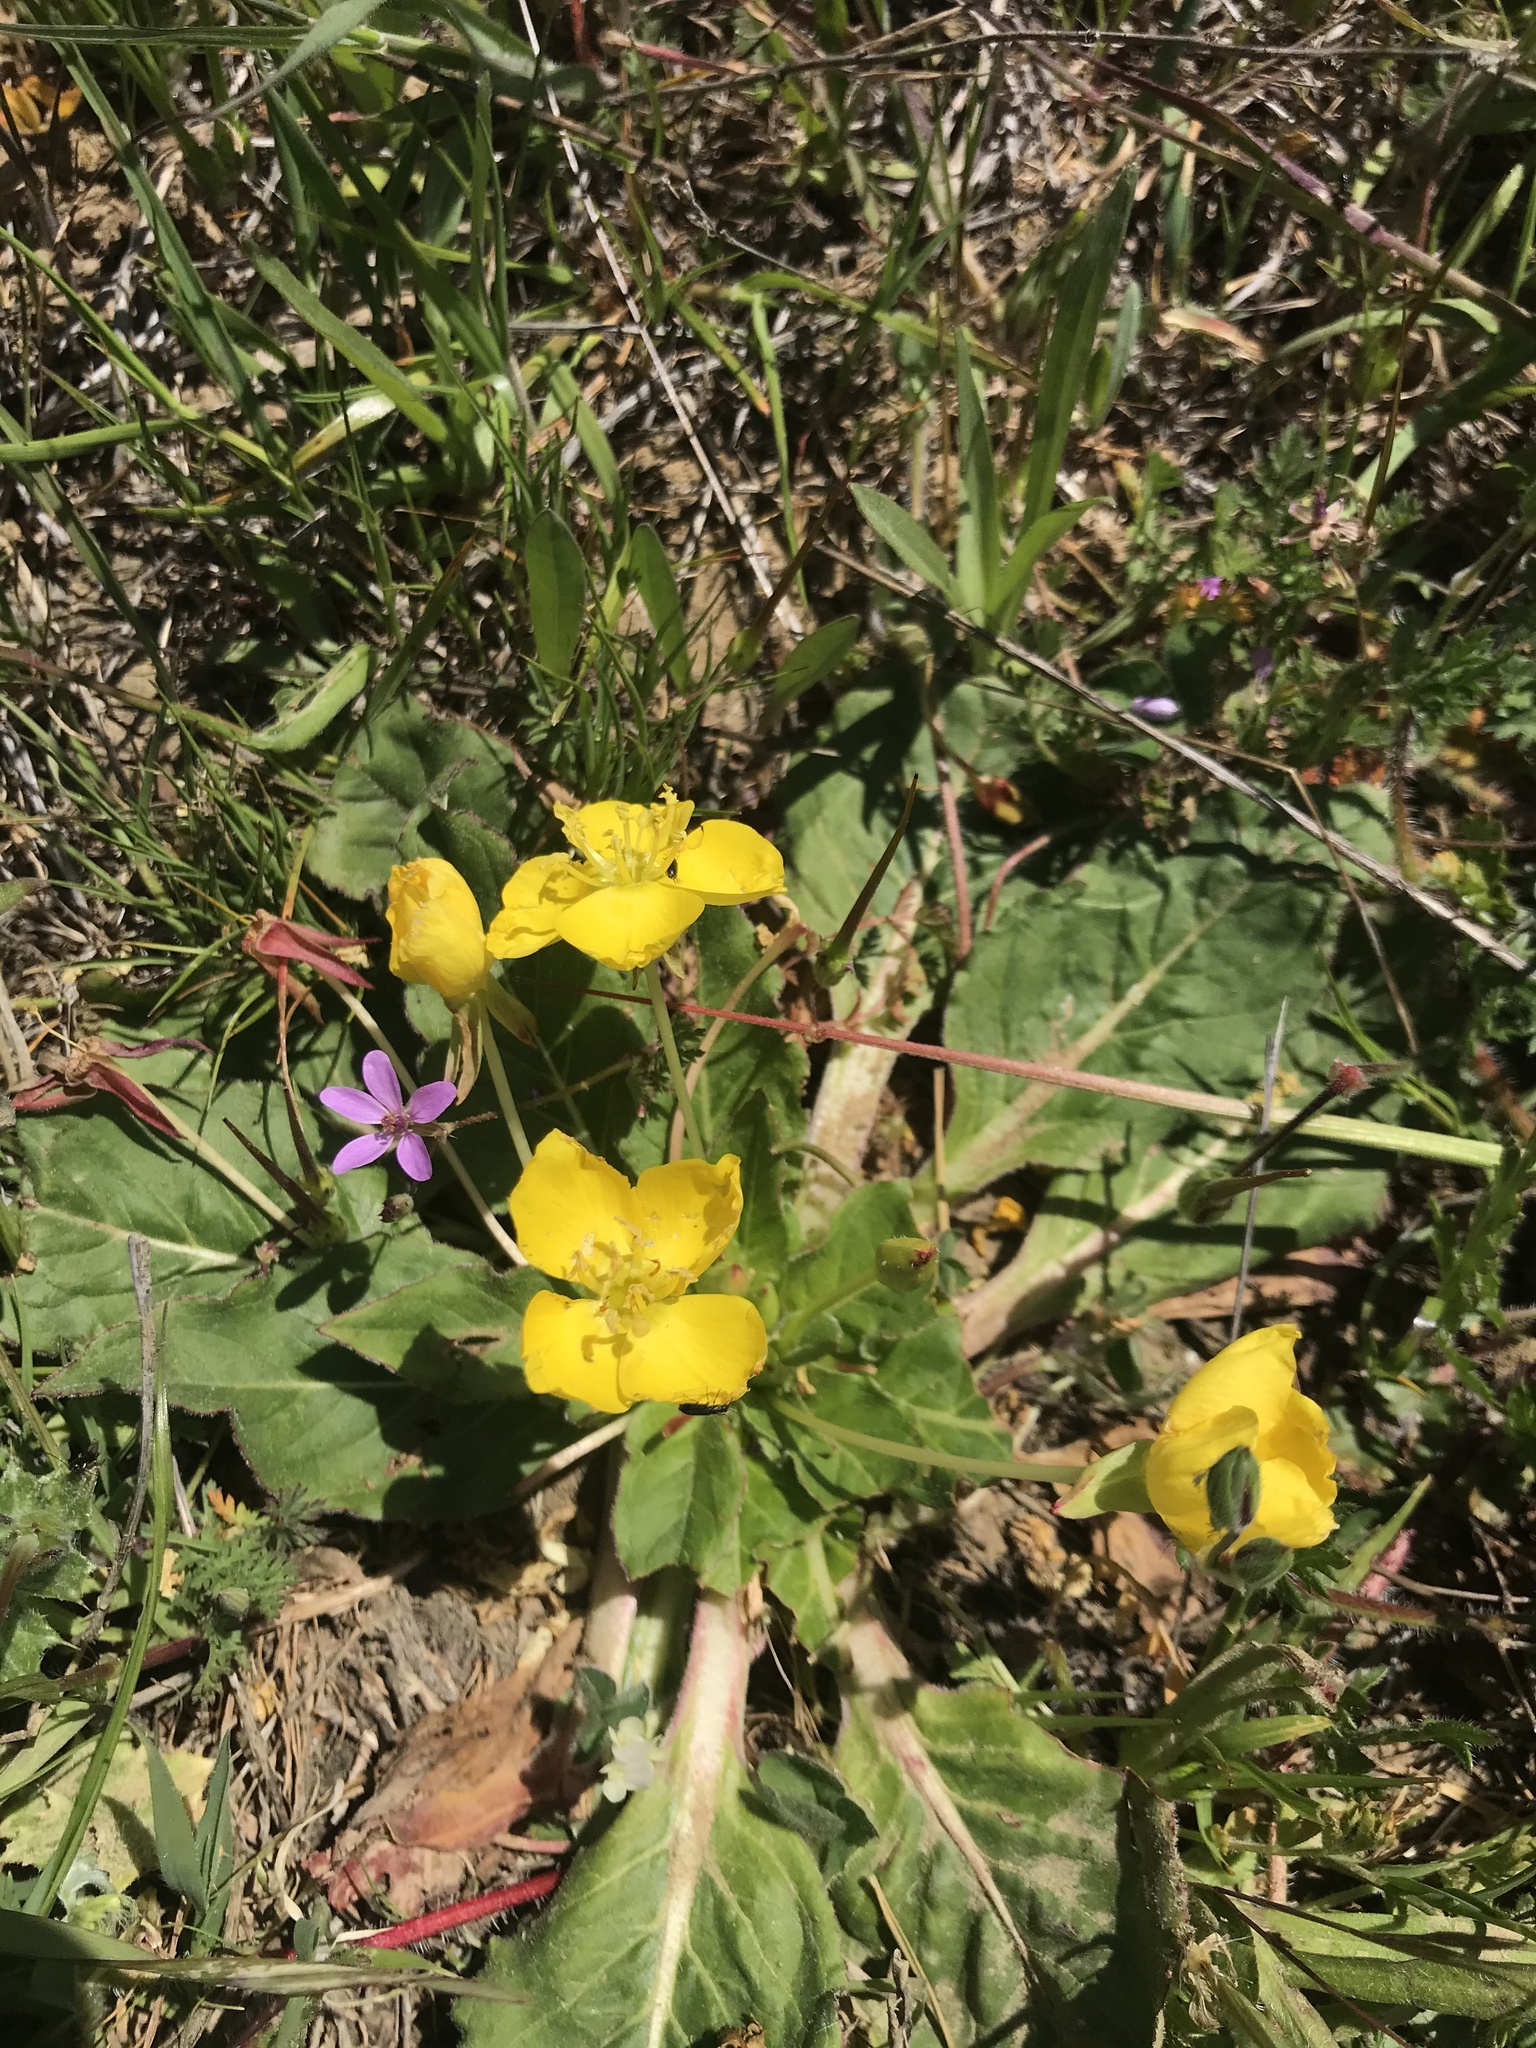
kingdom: Plantae
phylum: Tracheophyta
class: Magnoliopsida
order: Myrtales
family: Onagraceae
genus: Taraxia
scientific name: Taraxia ovata
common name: Goldeneggs
